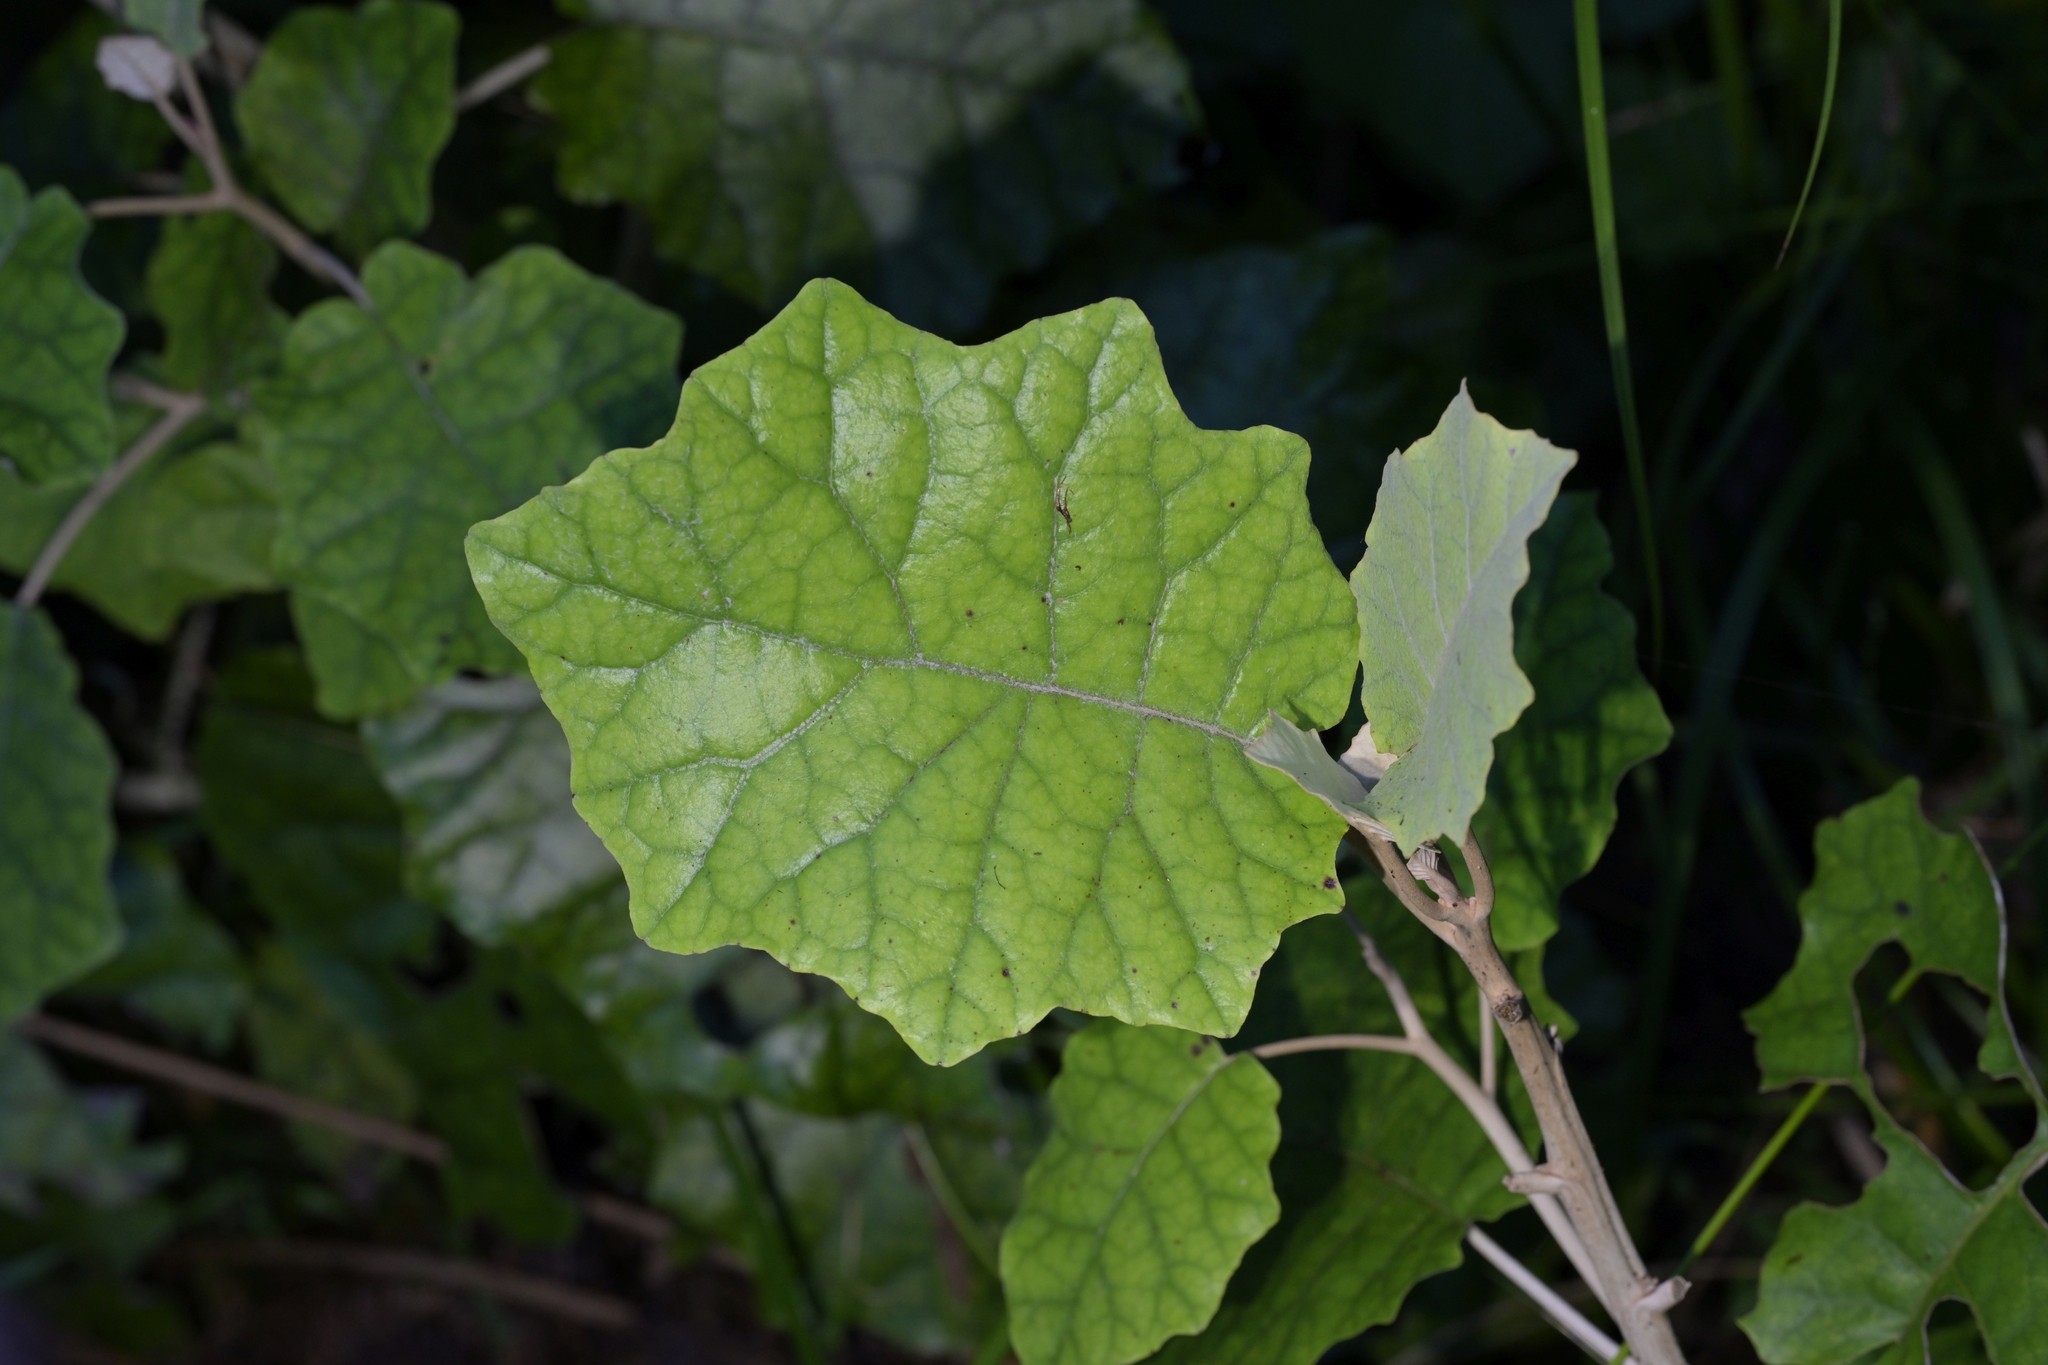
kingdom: Plantae
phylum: Tracheophyta
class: Magnoliopsida
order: Asterales
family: Asteraceae
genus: Brachyglottis
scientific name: Brachyglottis repanda
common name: Hedge ragwort
